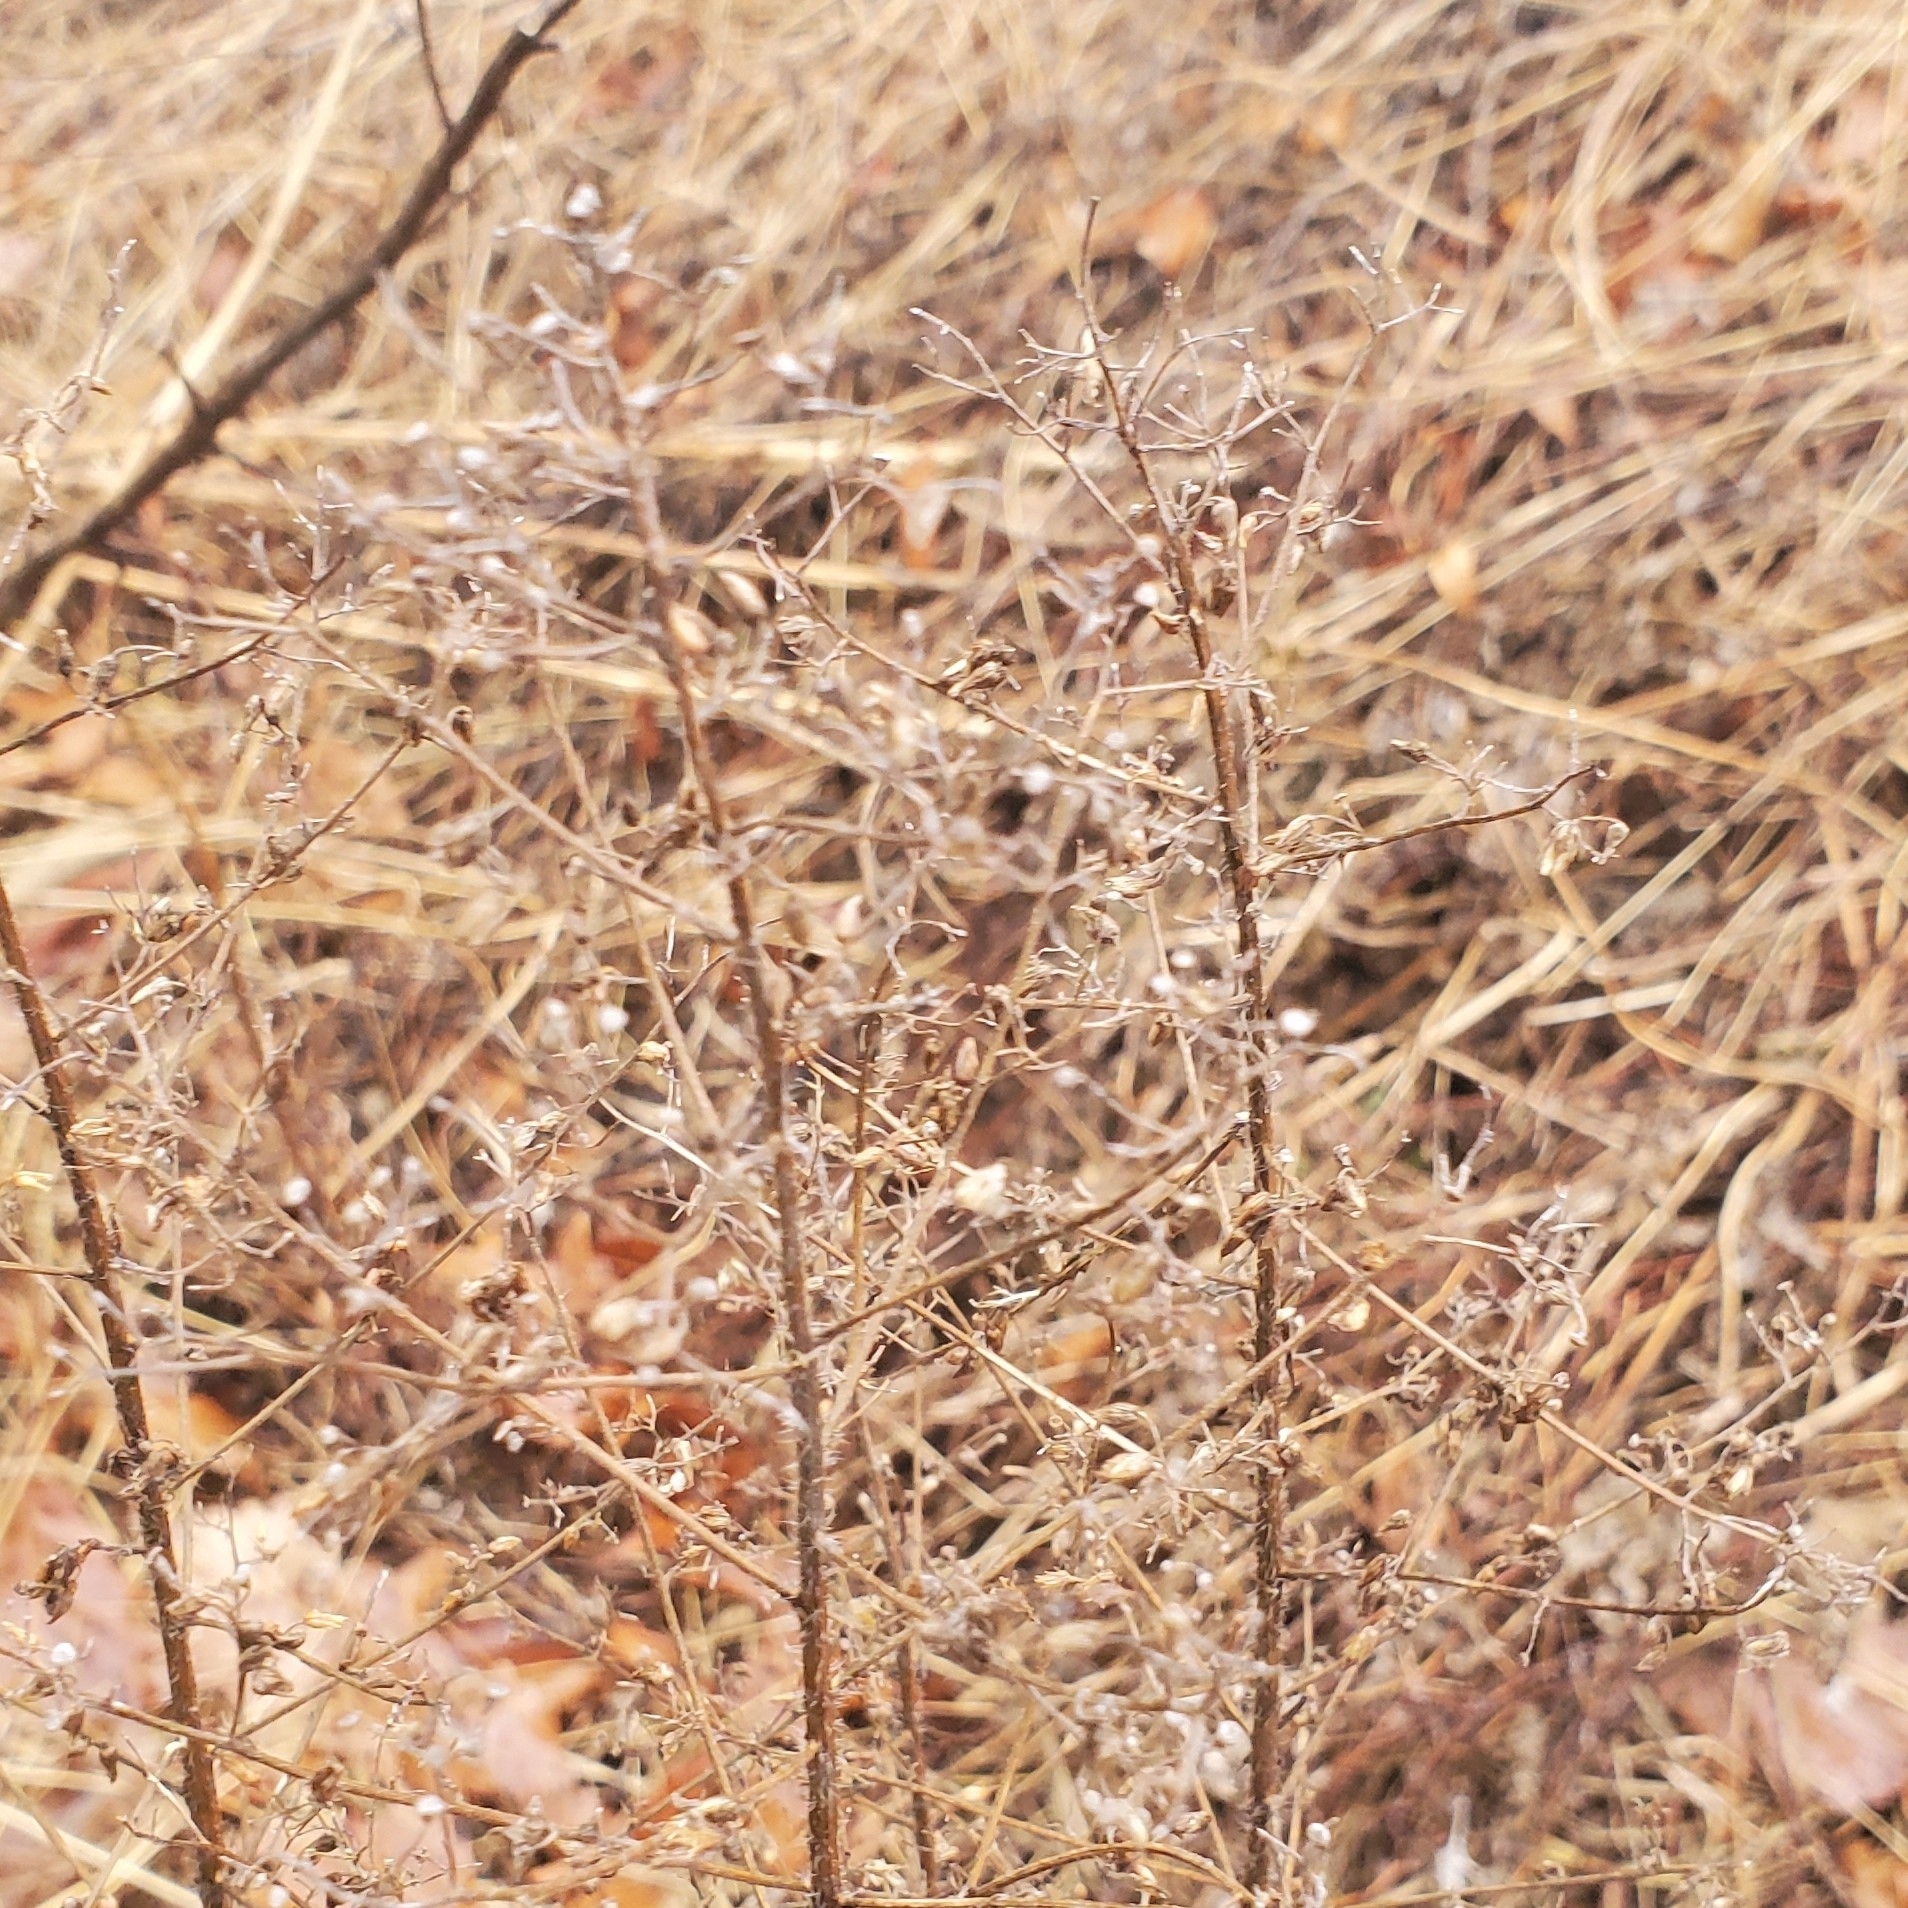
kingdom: Plantae
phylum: Tracheophyta
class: Magnoliopsida
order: Asterales
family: Asteraceae
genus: Erigeron
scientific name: Erigeron canadensis
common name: Canadian fleabane
